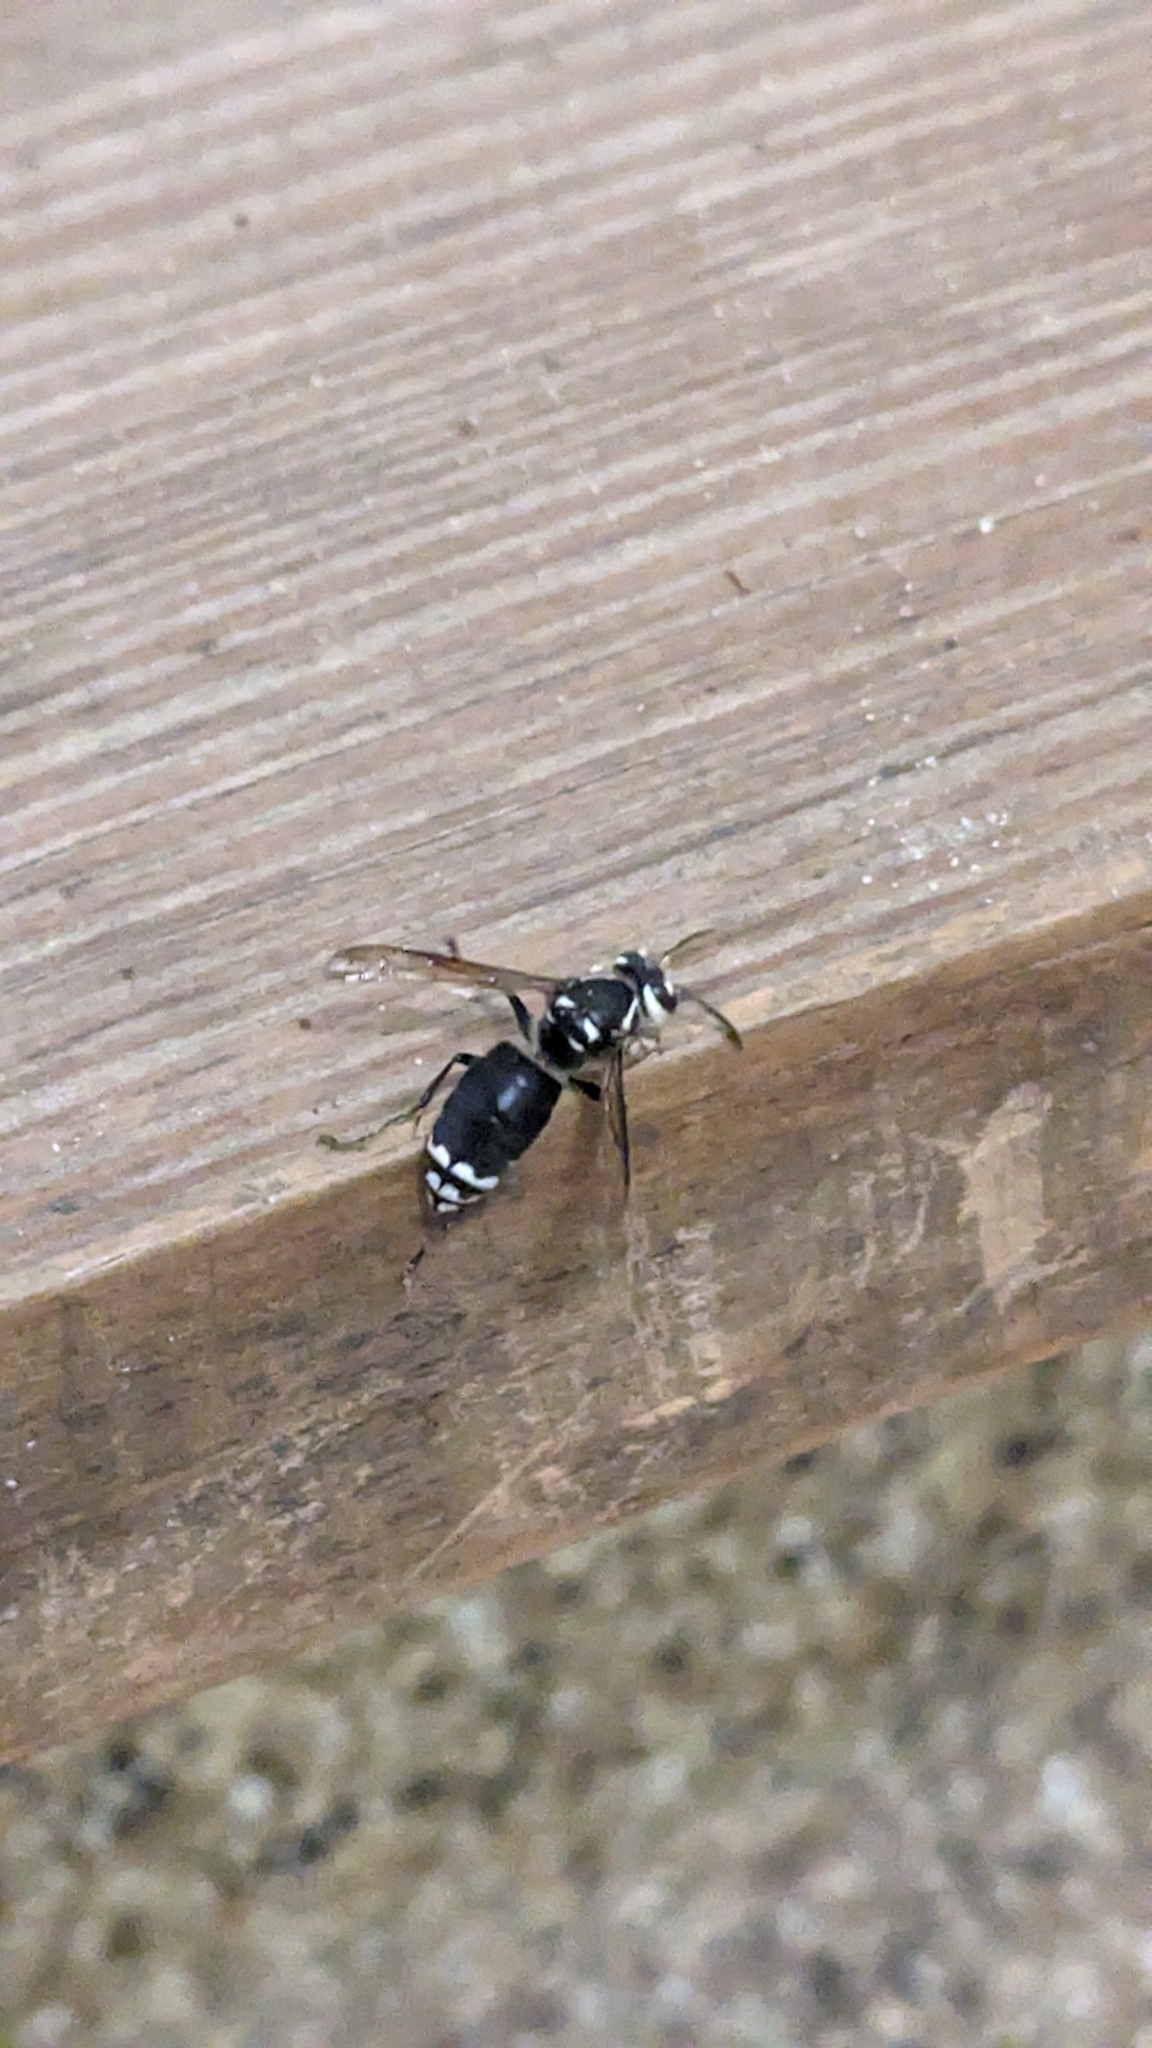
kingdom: Animalia
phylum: Arthropoda
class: Insecta
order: Hymenoptera
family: Vespidae
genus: Dolichovespula
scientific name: Dolichovespula maculata
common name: Bald-faced hornet
